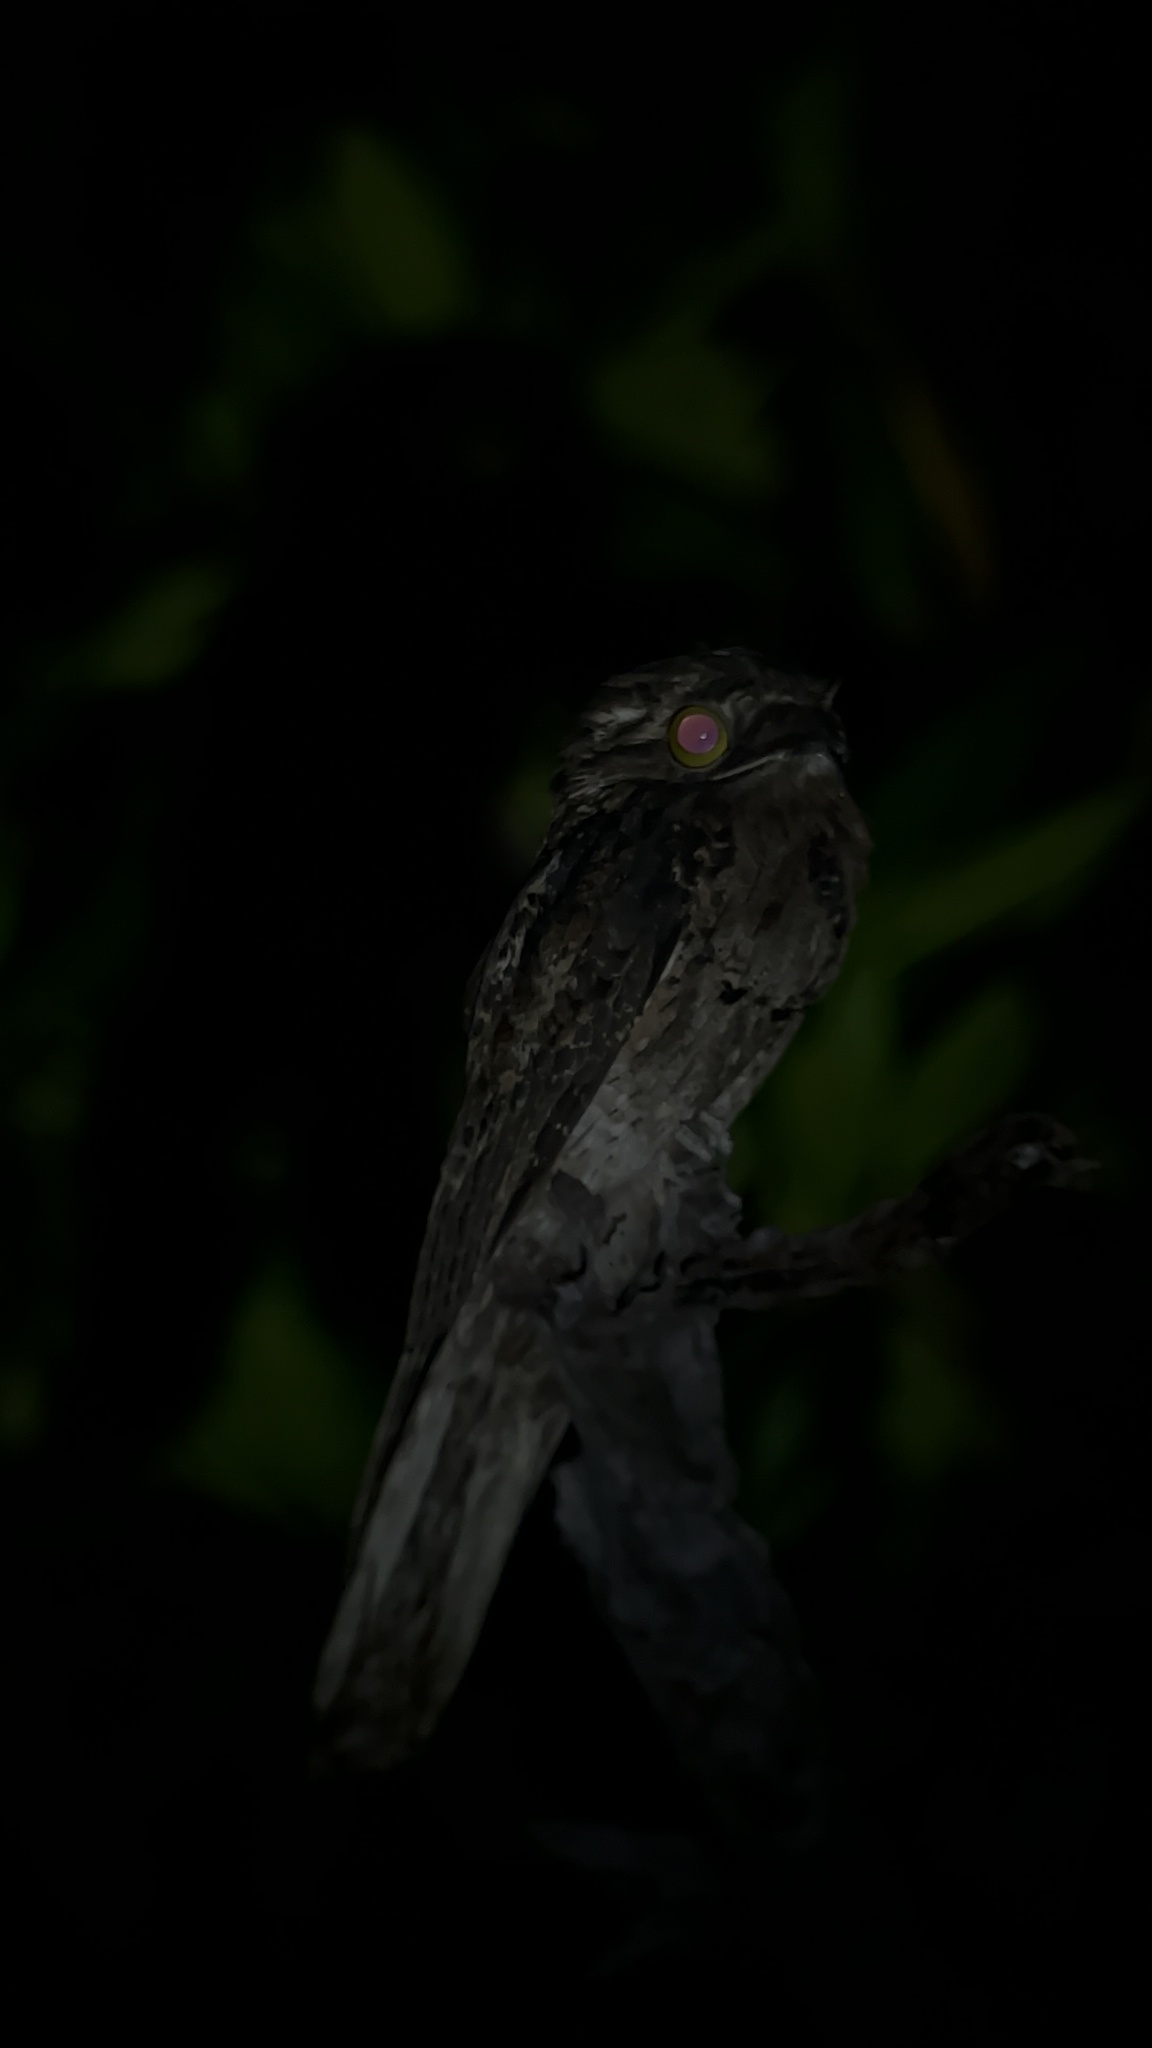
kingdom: Animalia
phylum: Chordata
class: Aves
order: Nyctibiiformes
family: Nyctibiidae
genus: Nyctibius
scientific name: Nyctibius griseus
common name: Common potoo
